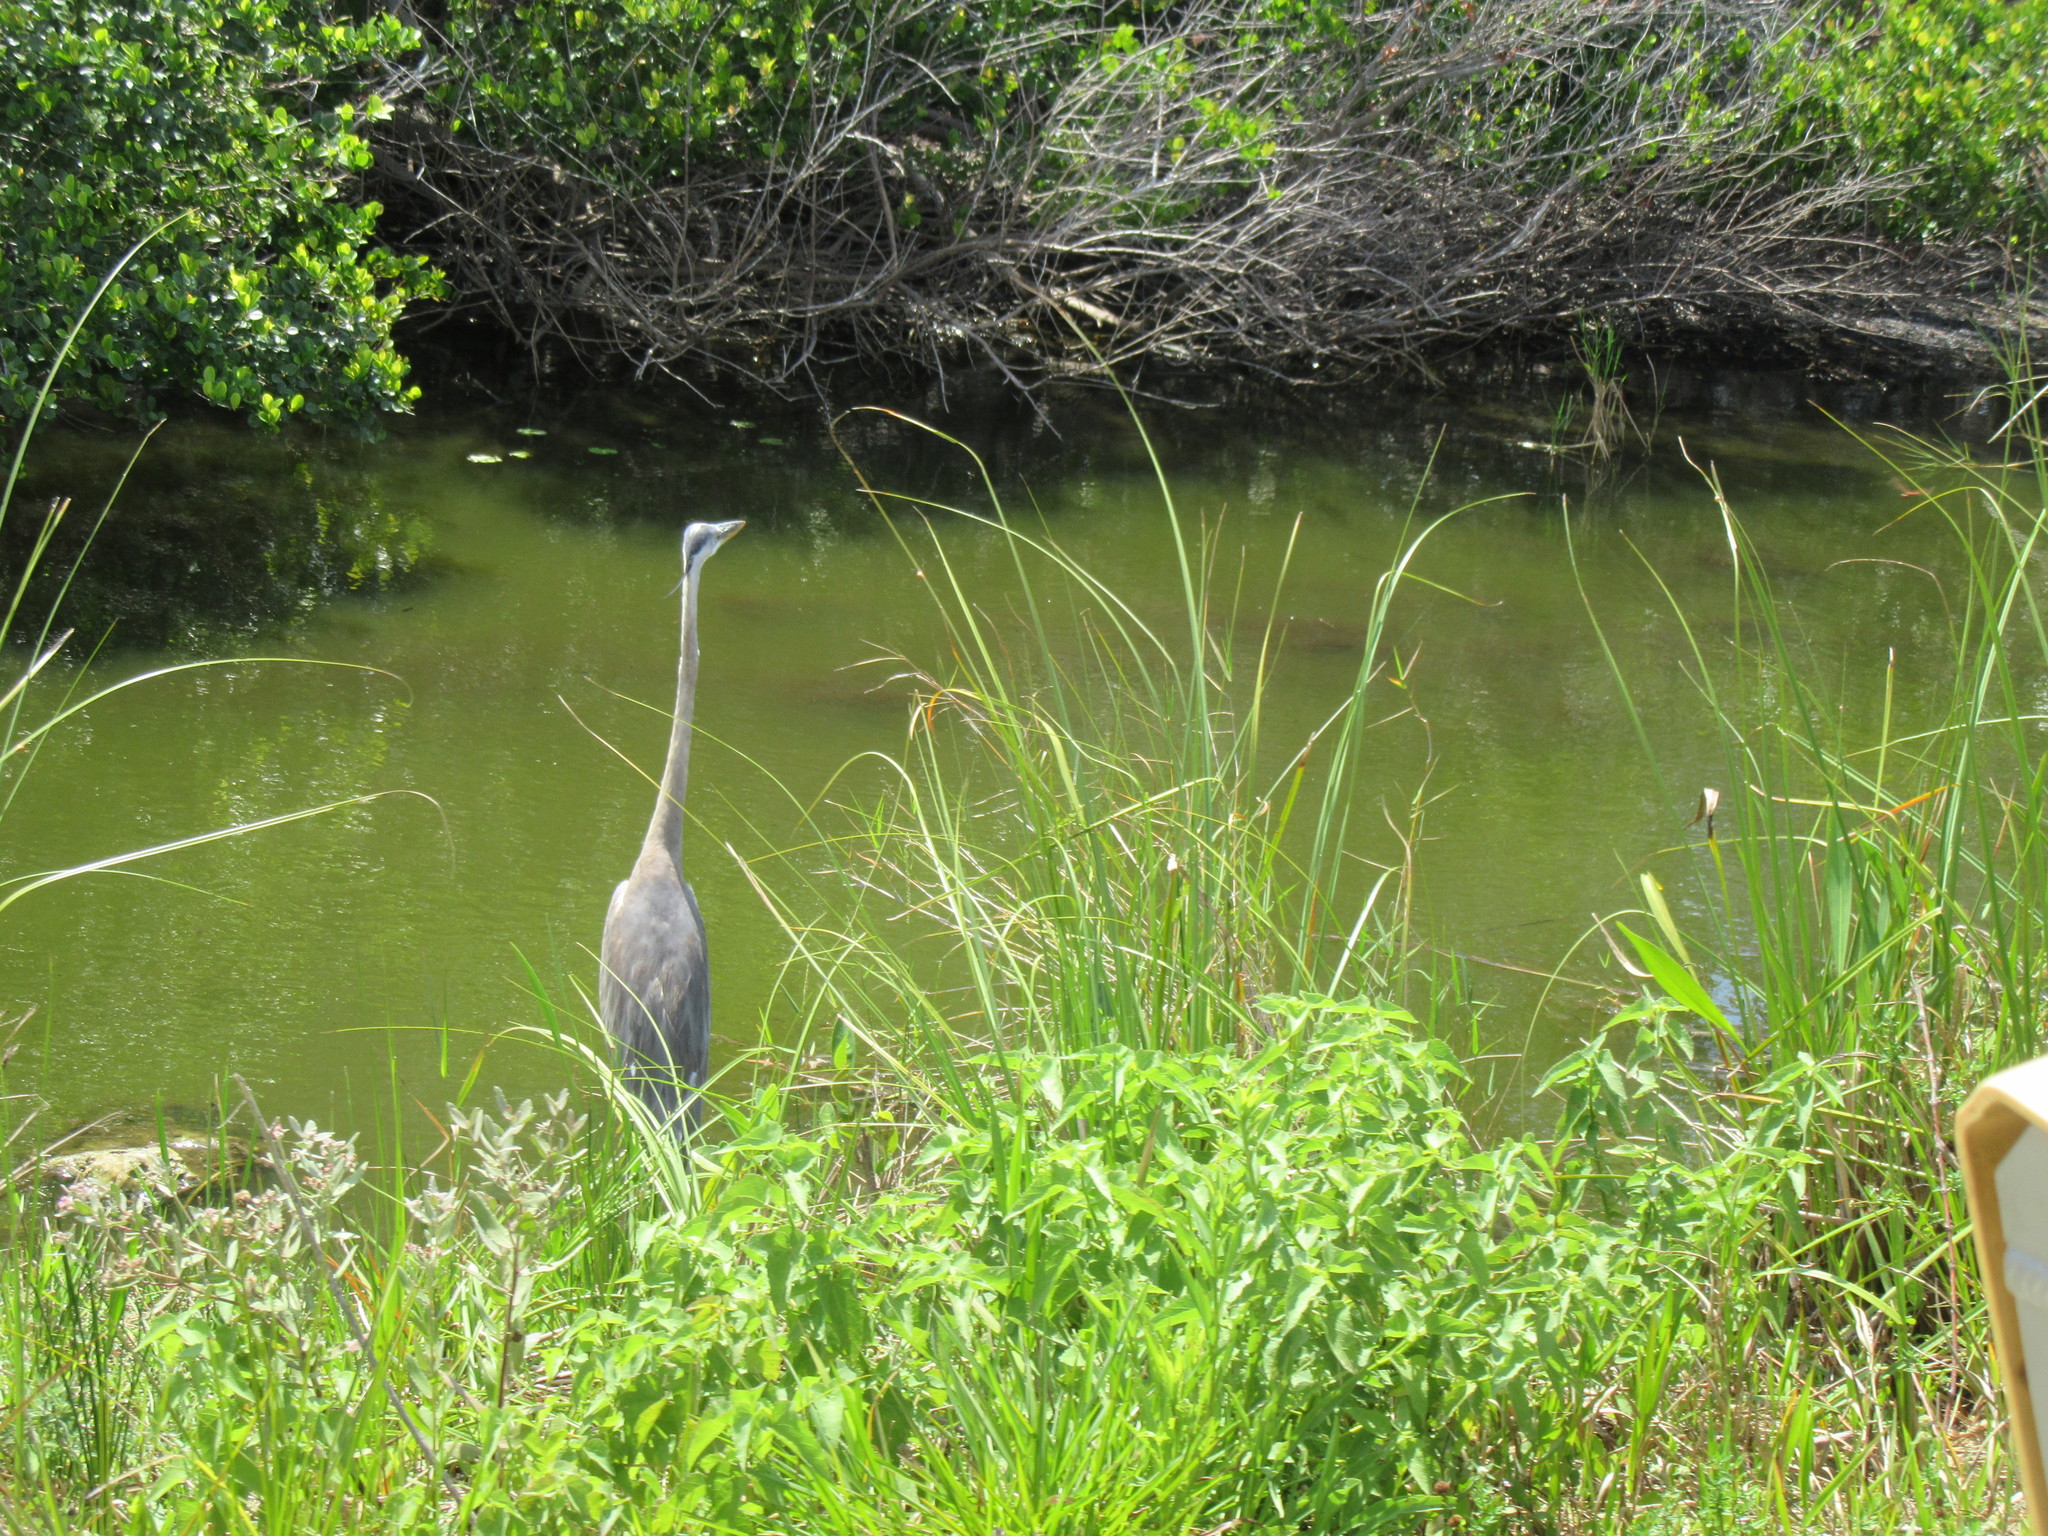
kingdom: Animalia
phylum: Chordata
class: Aves
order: Pelecaniformes
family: Ardeidae
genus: Ardea
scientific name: Ardea herodias
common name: Great blue heron
